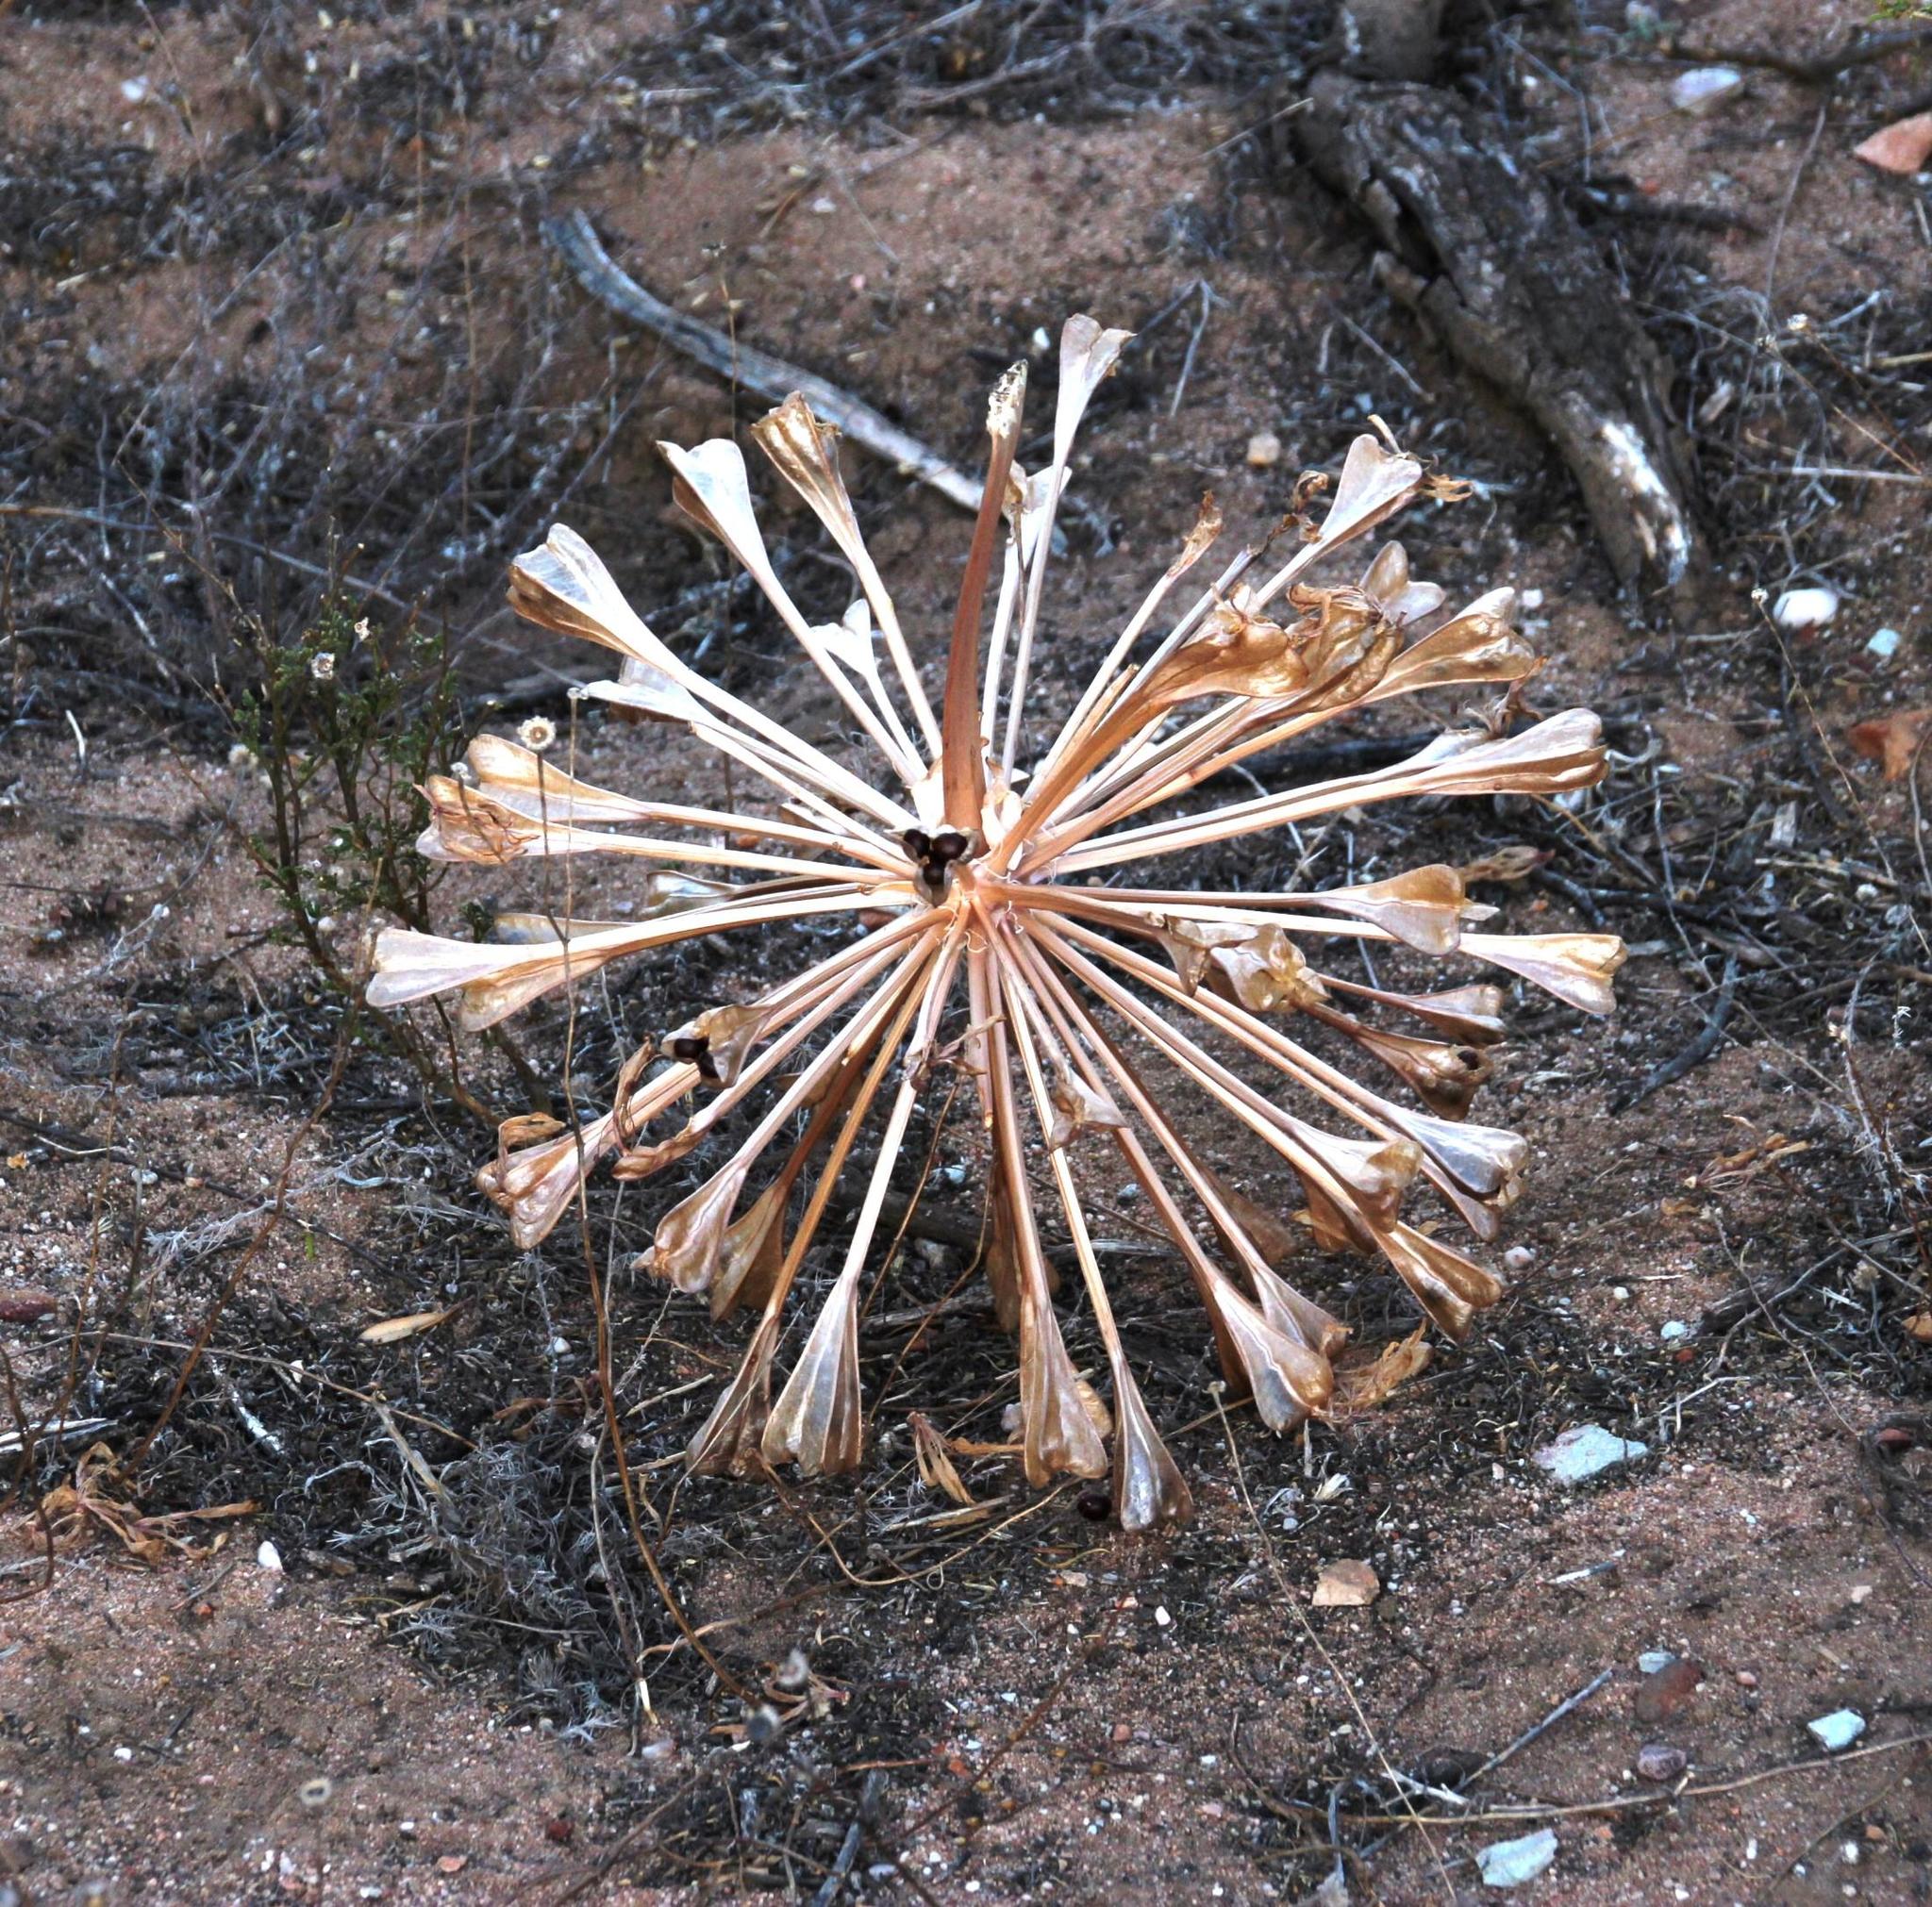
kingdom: Plantae
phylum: Tracheophyta
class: Liliopsida
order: Asparagales
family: Amaryllidaceae
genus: Brunsvigia
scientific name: Brunsvigia bosmaniae
